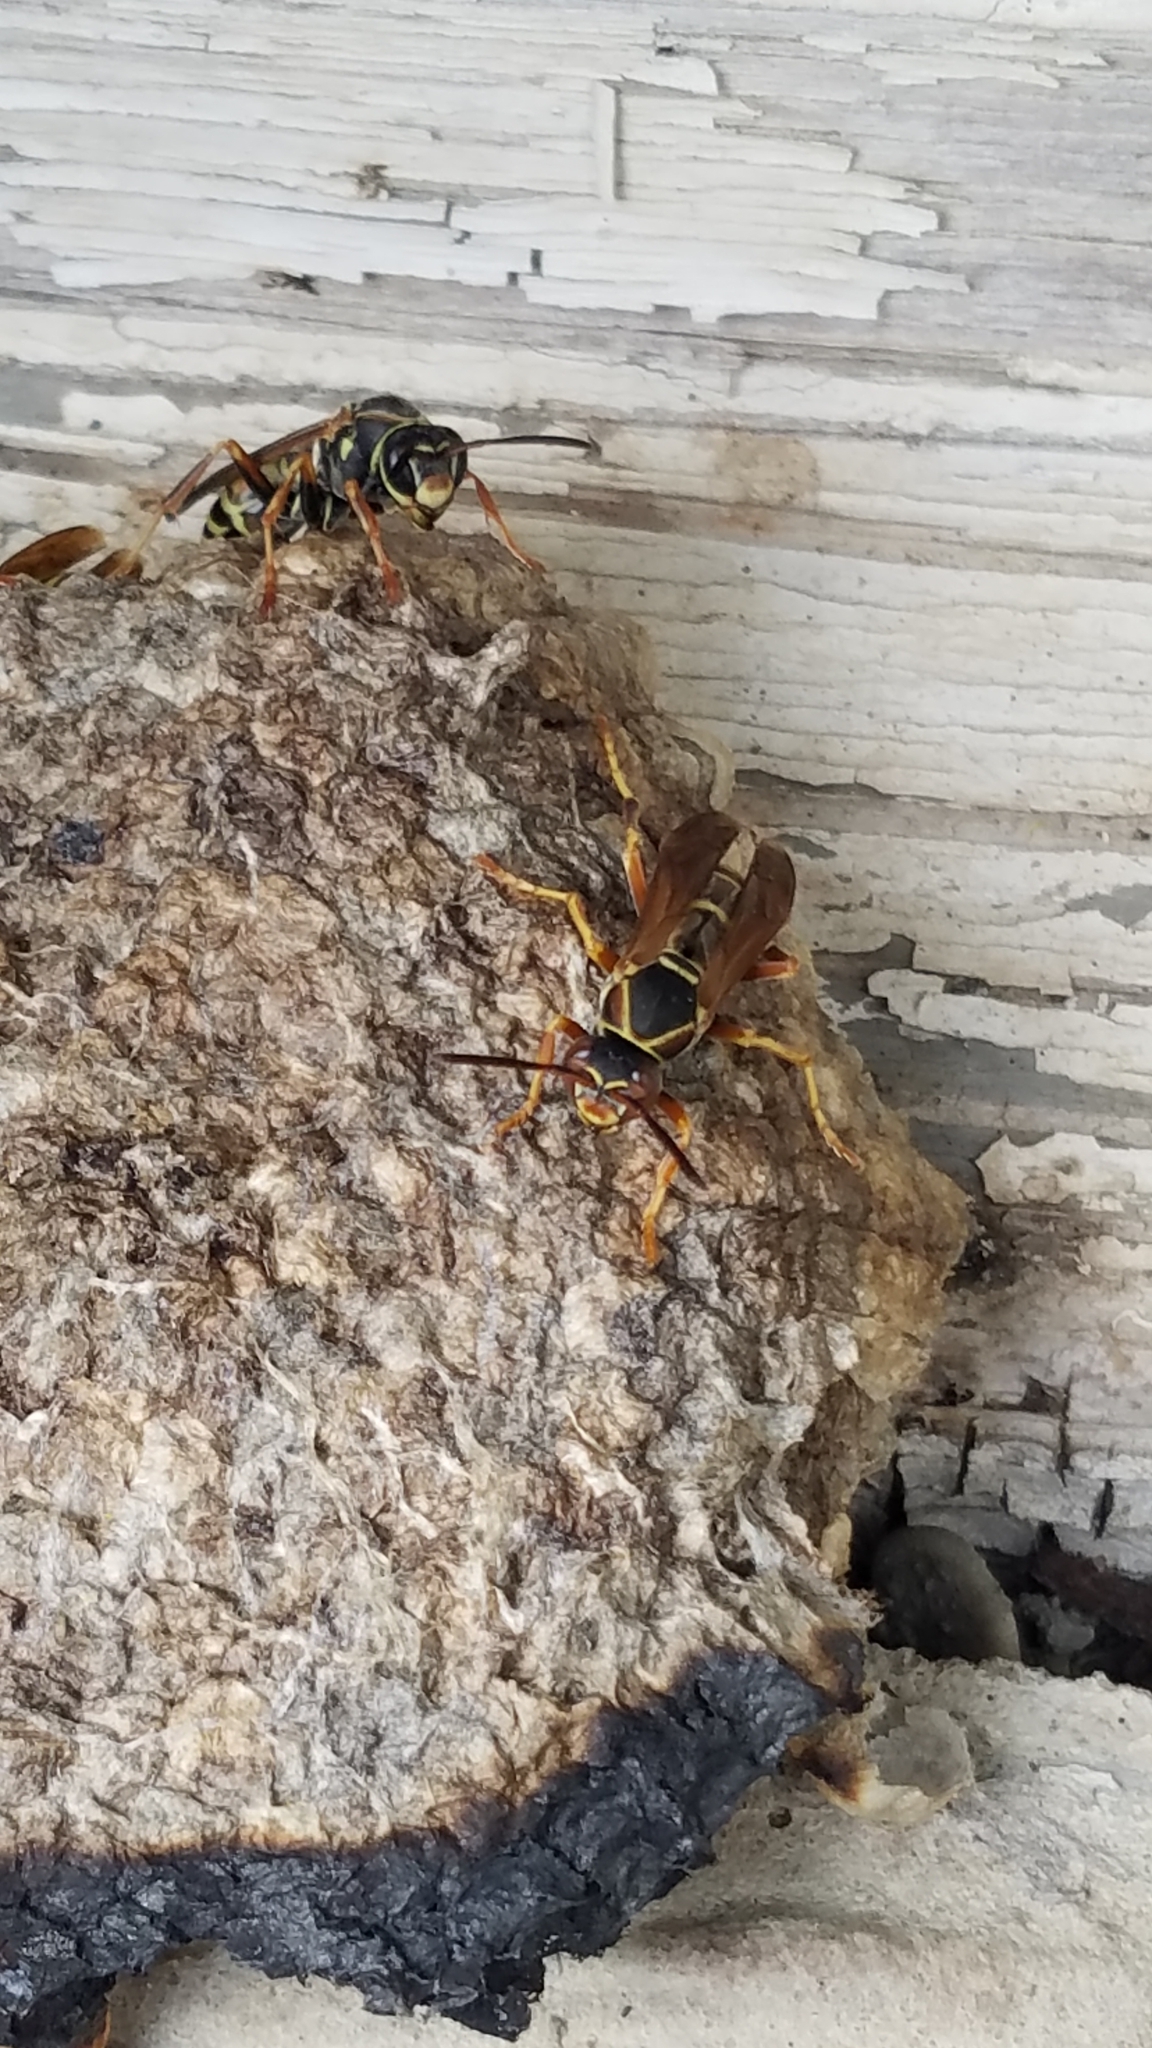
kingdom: Animalia
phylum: Arthropoda
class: Insecta
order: Hymenoptera
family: Eumenidae
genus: Polistes
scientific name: Polistes fuscatus
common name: Dark paper wasp
